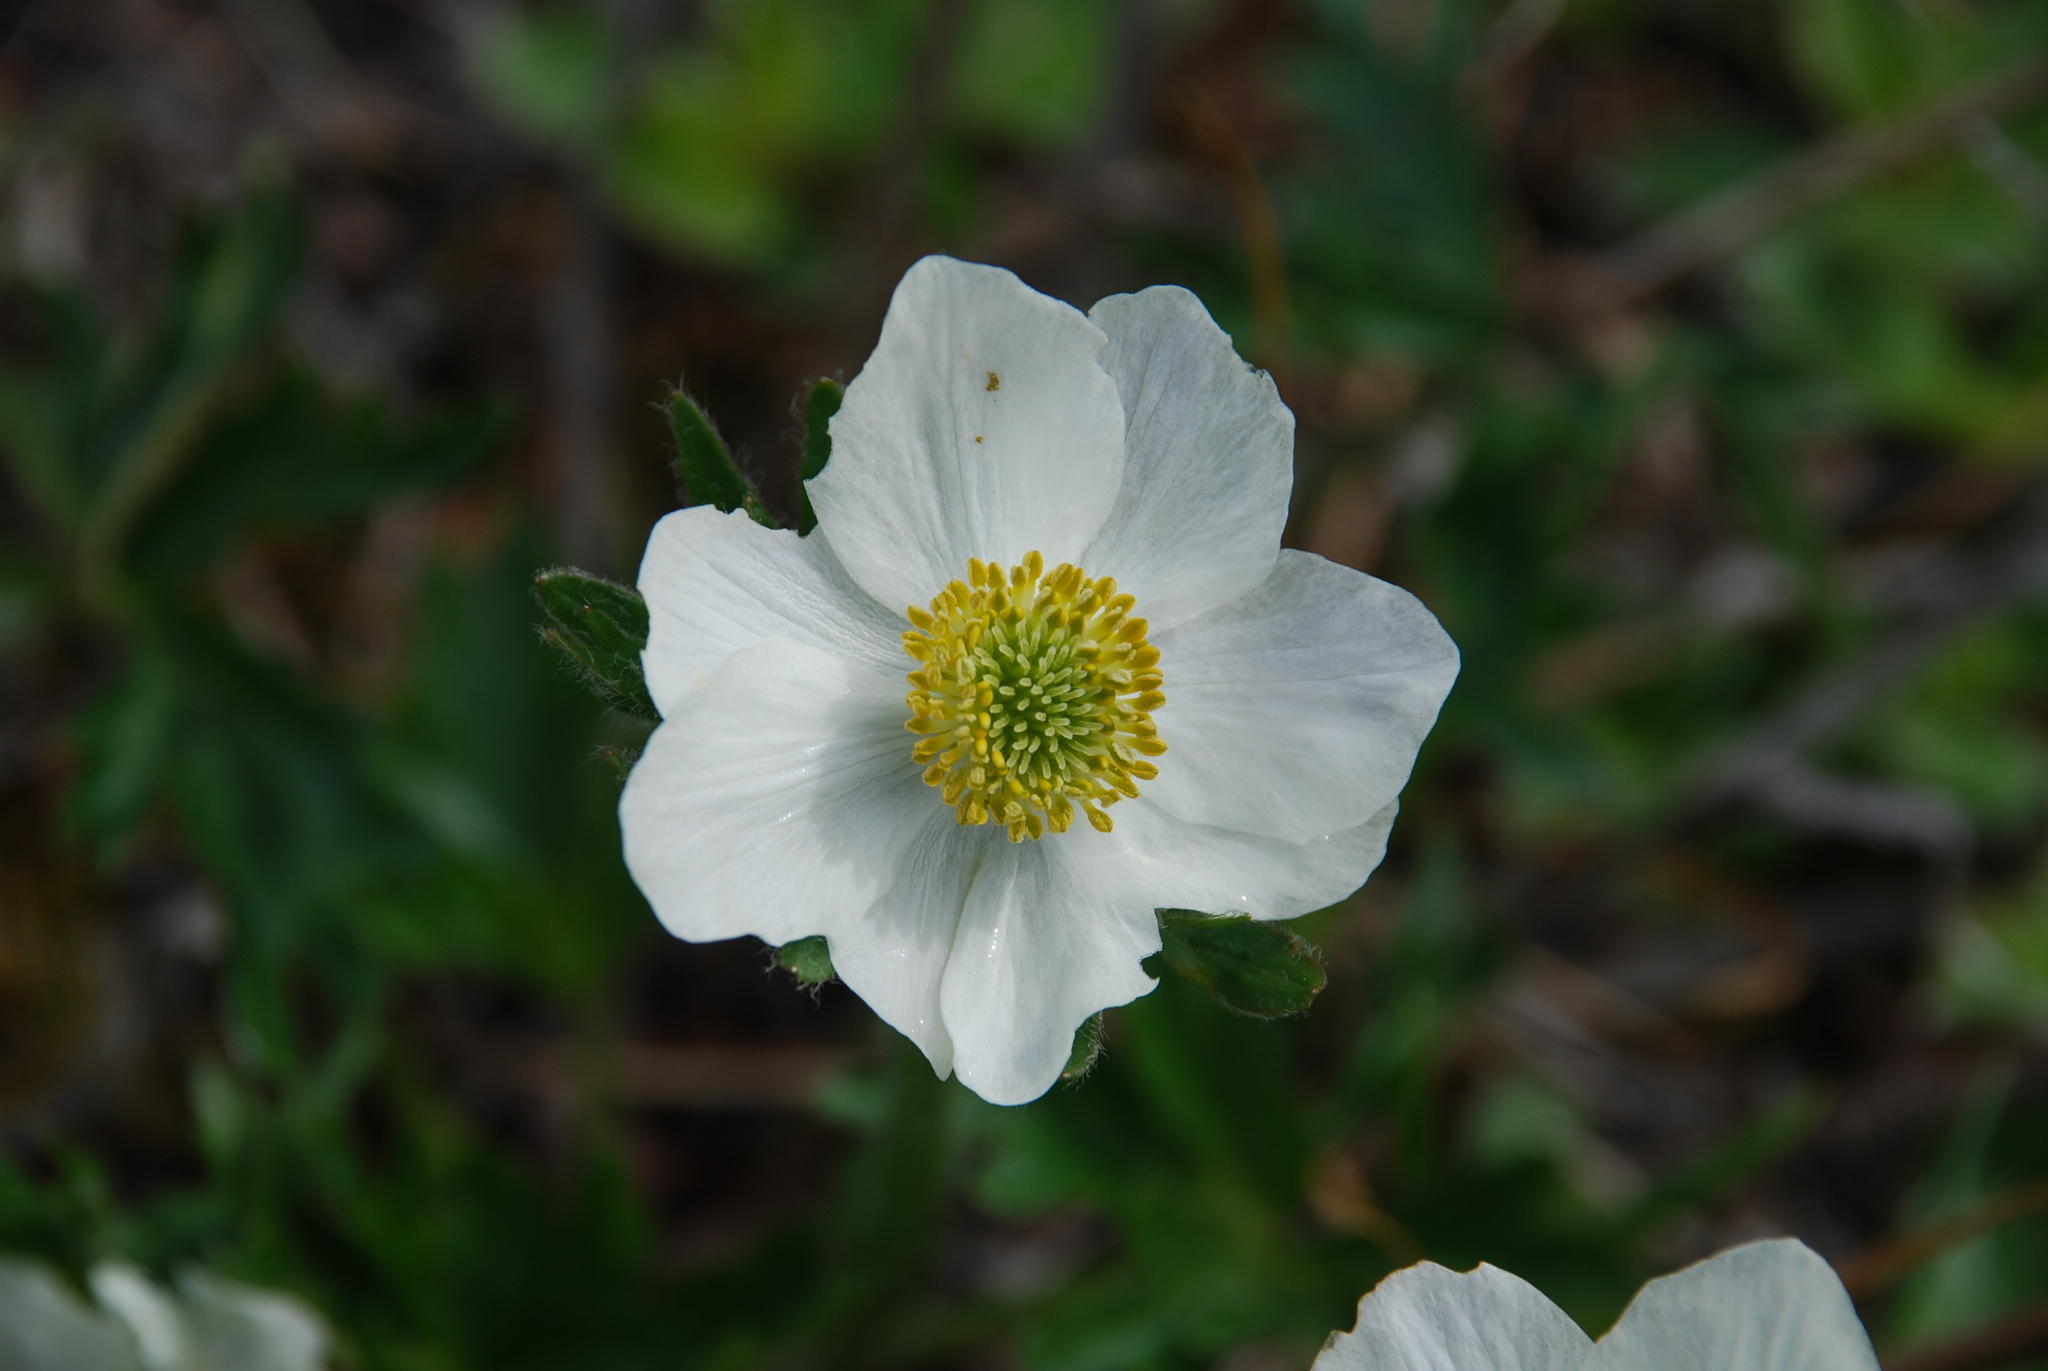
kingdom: Plantae
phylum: Tracheophyta
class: Magnoliopsida
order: Ranunculales
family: Ranunculaceae
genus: Anemonastrum
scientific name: Anemonastrum narcissiflorum
